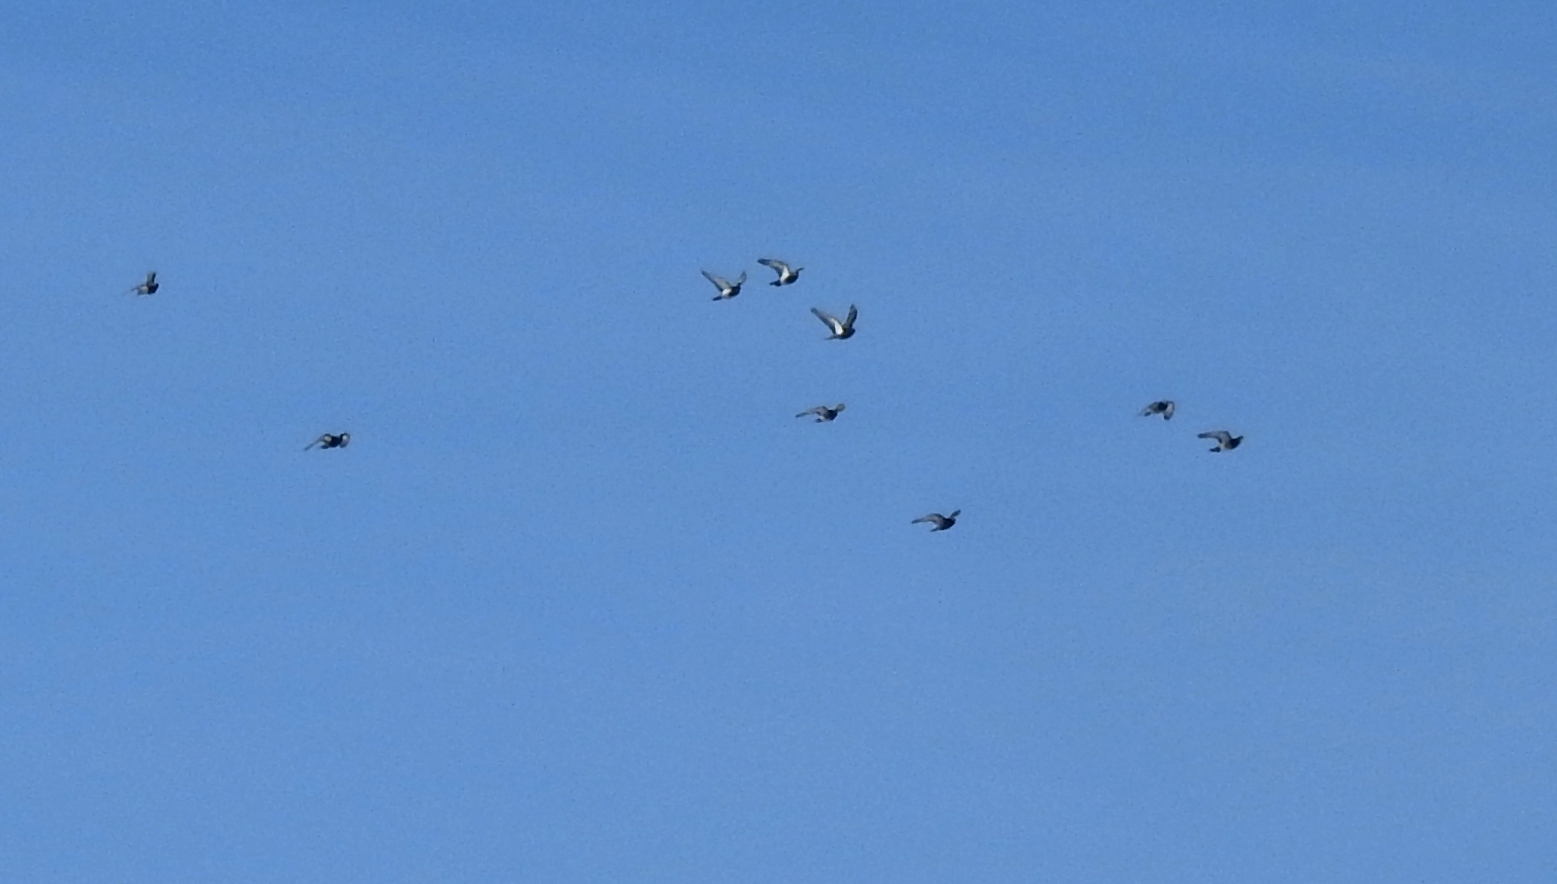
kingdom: Animalia
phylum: Chordata
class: Aves
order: Columbiformes
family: Columbidae
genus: Columba
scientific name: Columba rupestris
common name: Hill pigeon
